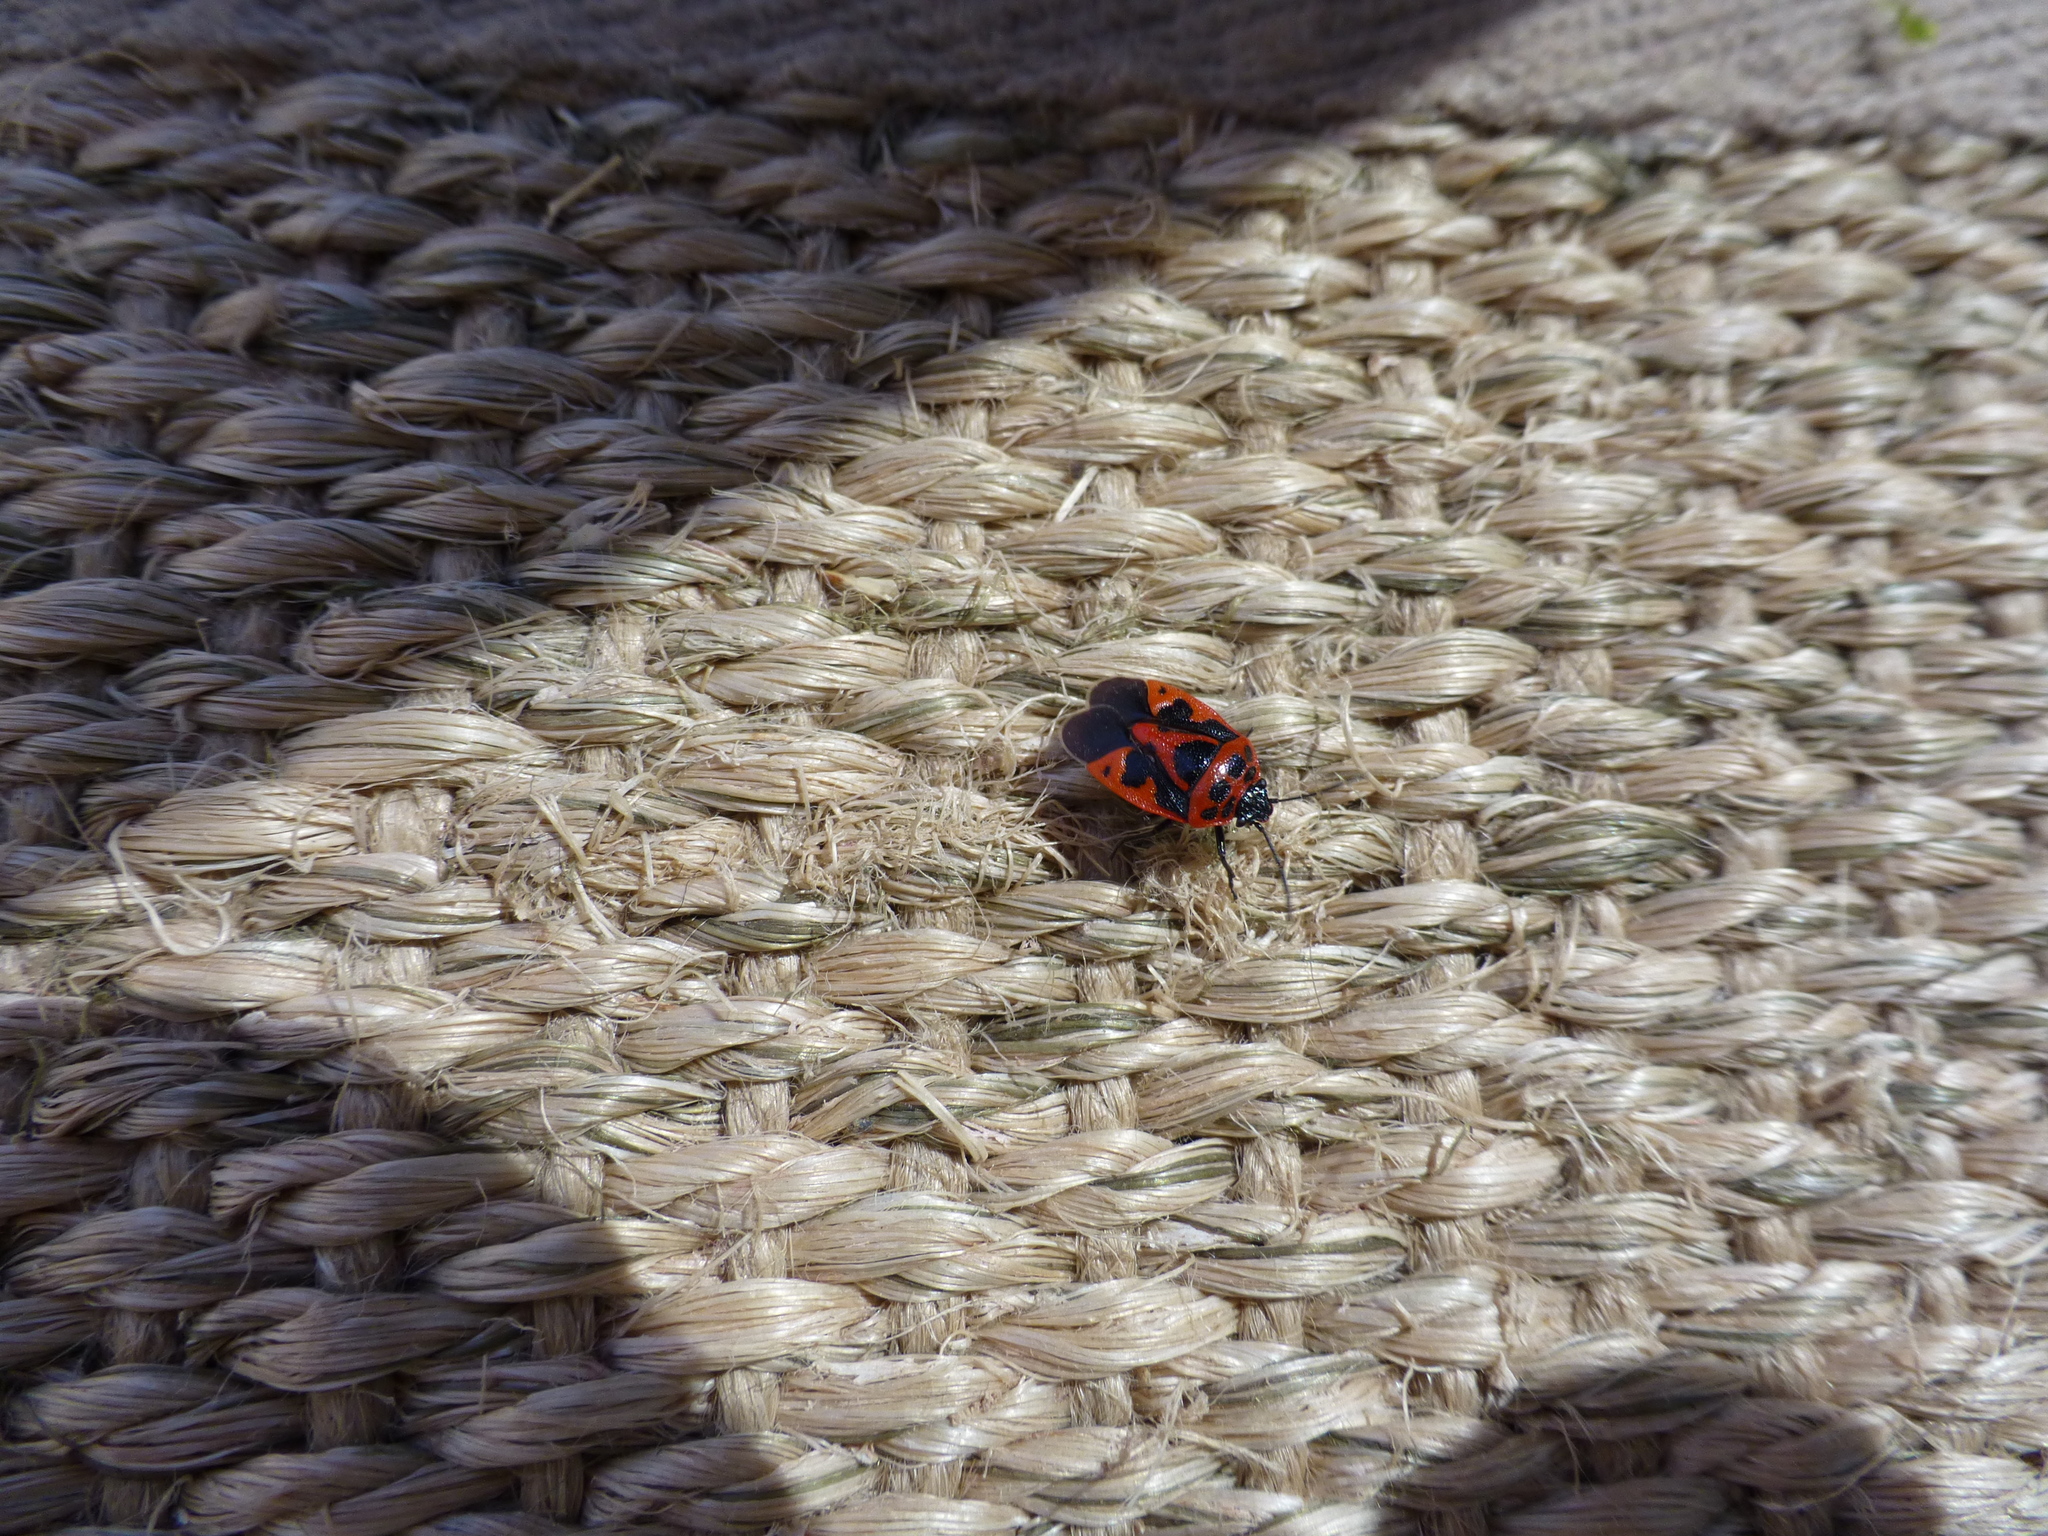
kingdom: Animalia
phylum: Arthropoda
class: Insecta
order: Hemiptera
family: Pentatomidae
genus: Eurydema
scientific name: Eurydema dominulus
